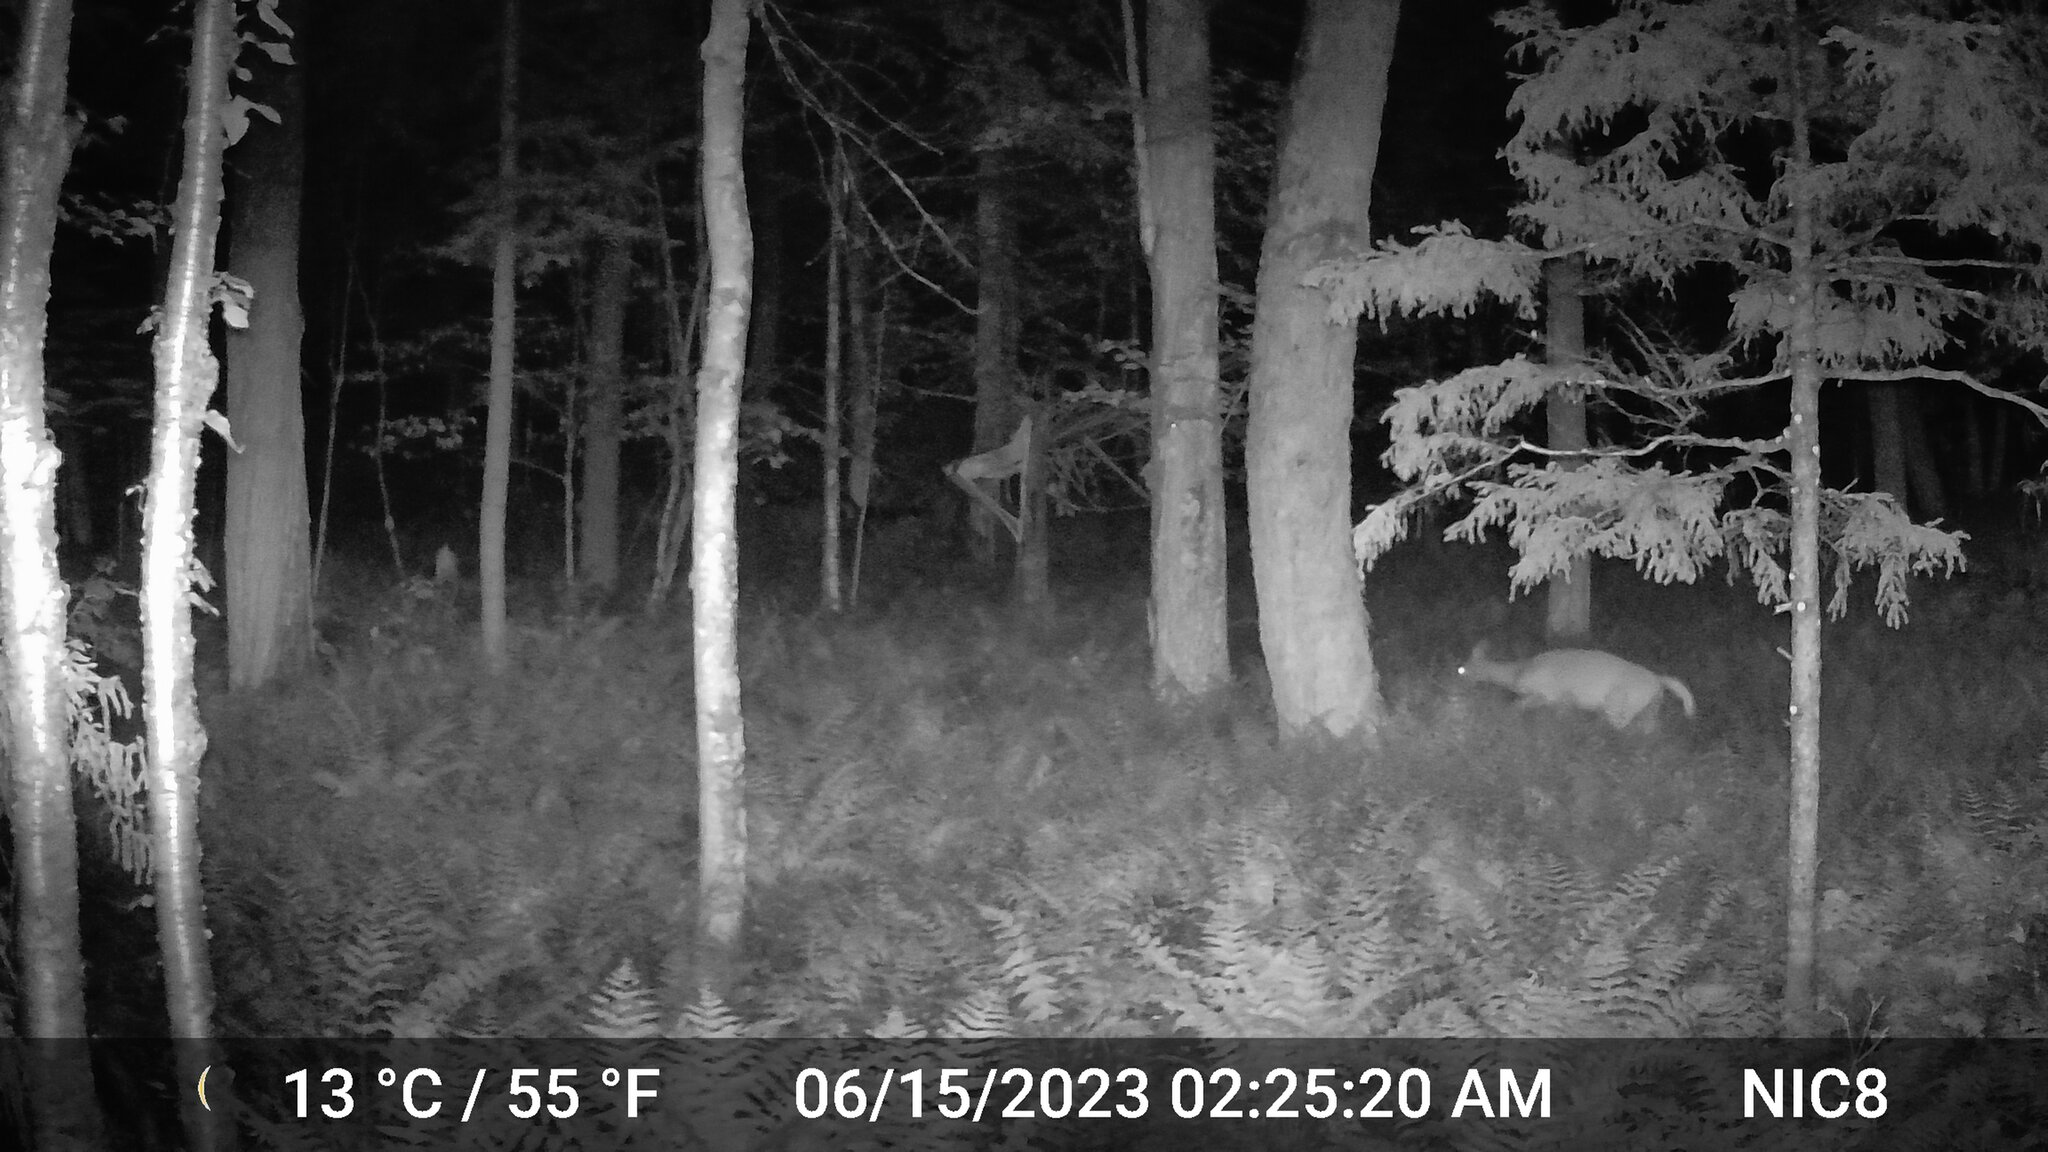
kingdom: Animalia
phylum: Chordata
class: Mammalia
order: Artiodactyla
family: Cervidae
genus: Odocoileus
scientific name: Odocoileus virginianus
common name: White-tailed deer
